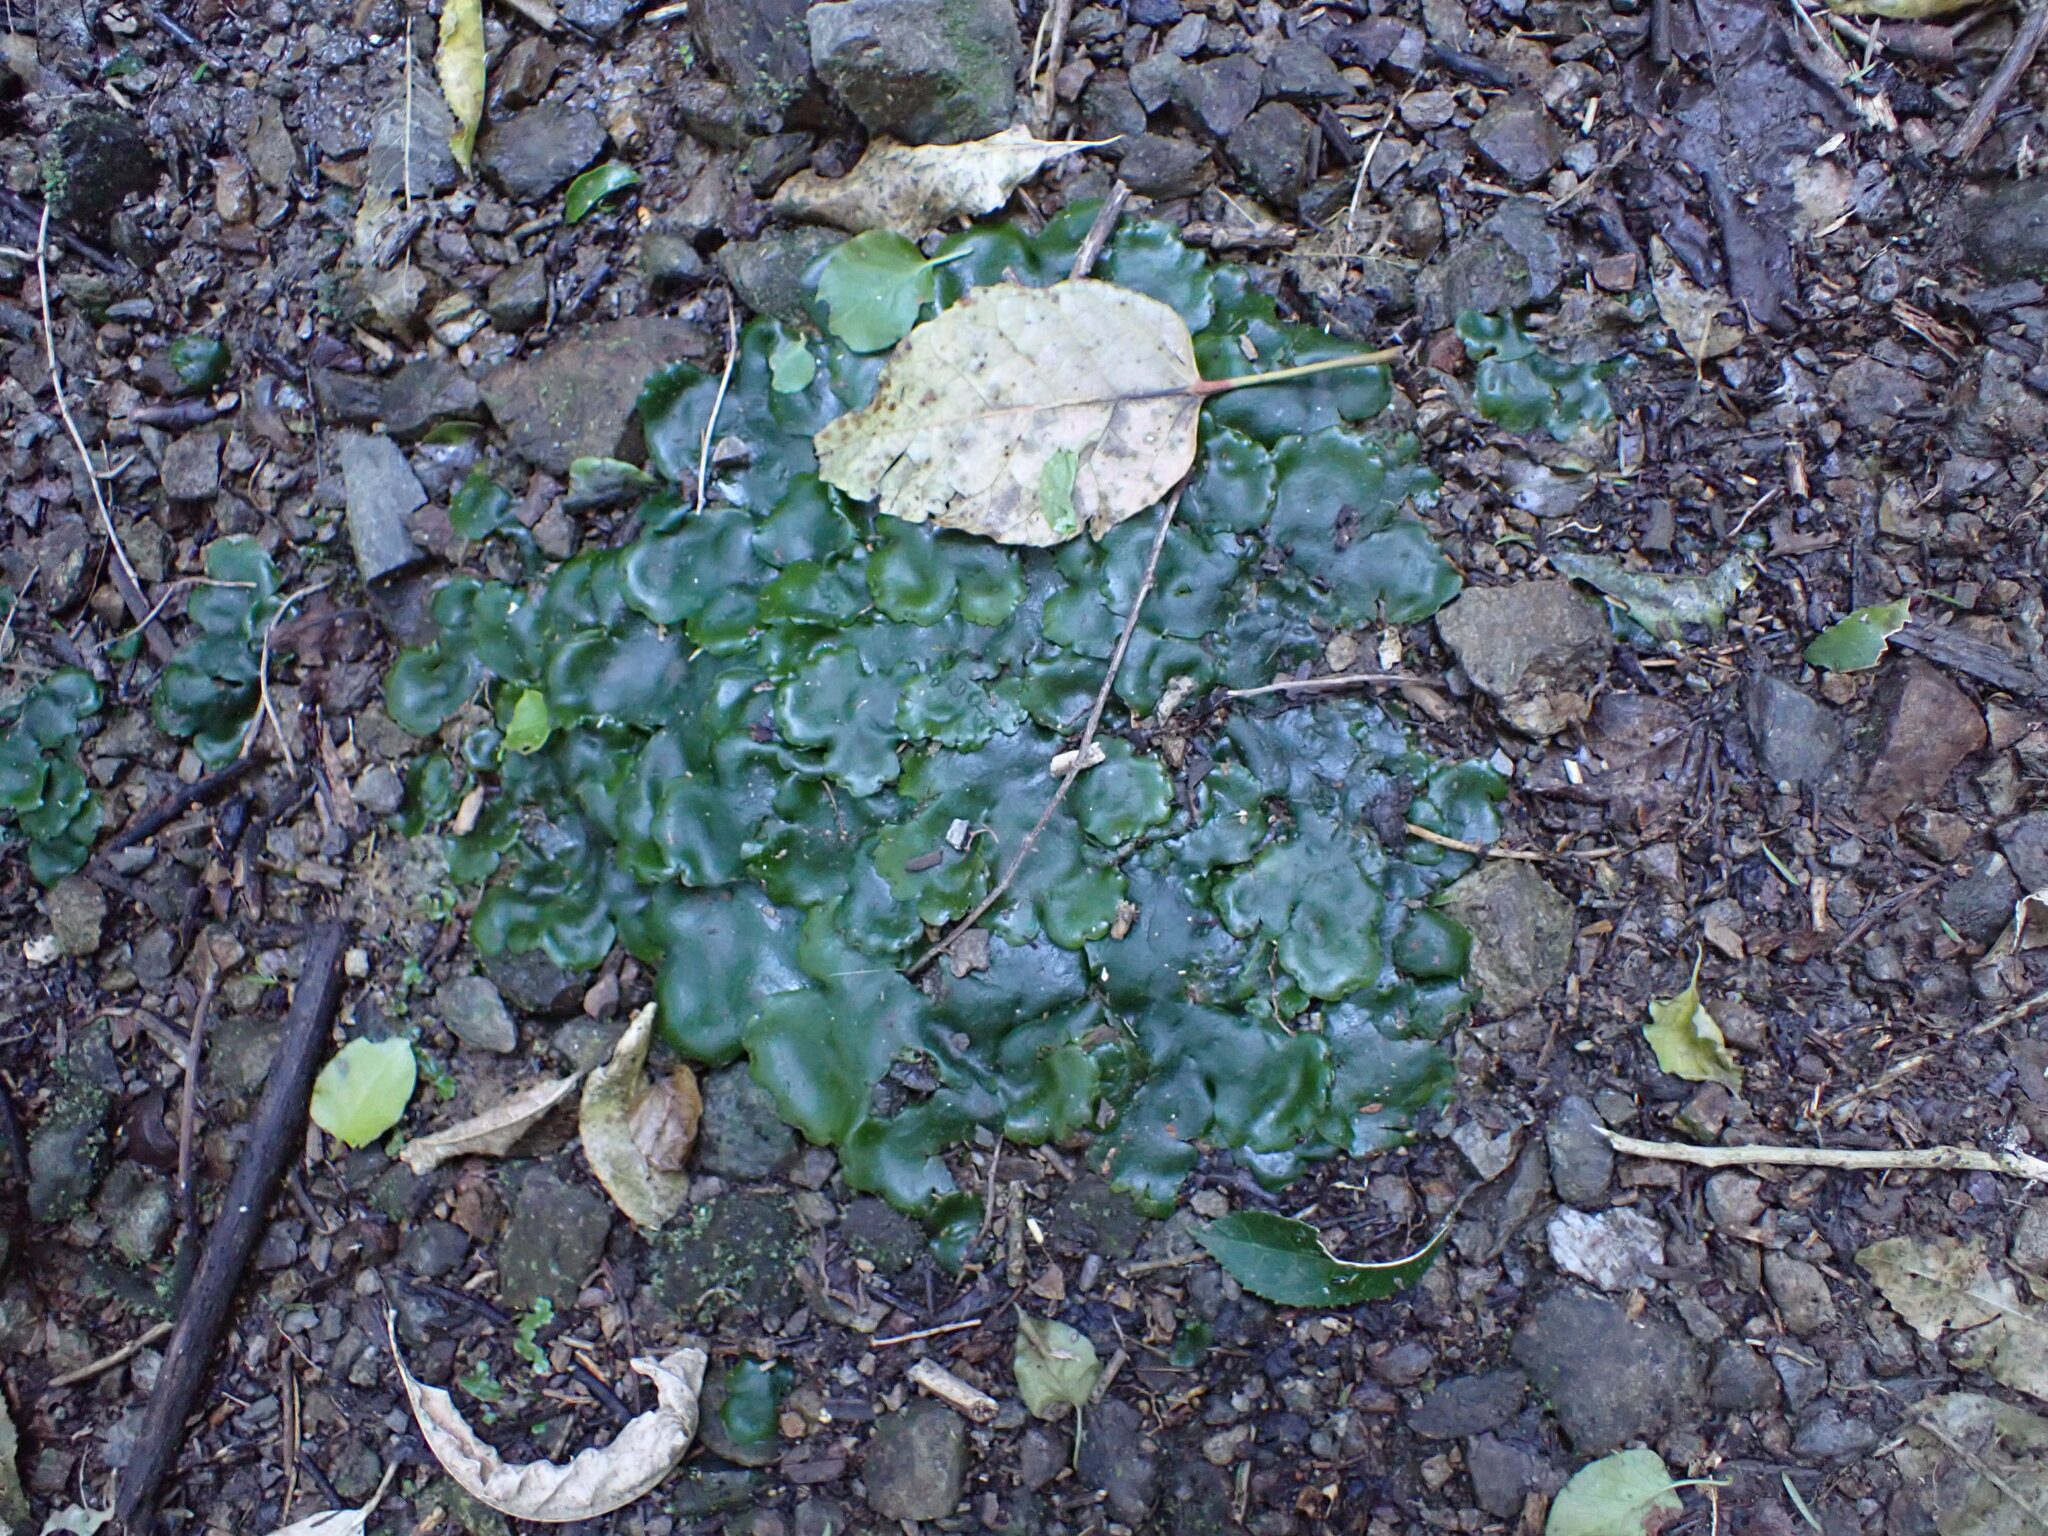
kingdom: Plantae
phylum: Marchantiophyta
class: Marchantiopsida
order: Marchantiales
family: Monocleaceae
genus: Monoclea
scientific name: Monoclea forsteri
